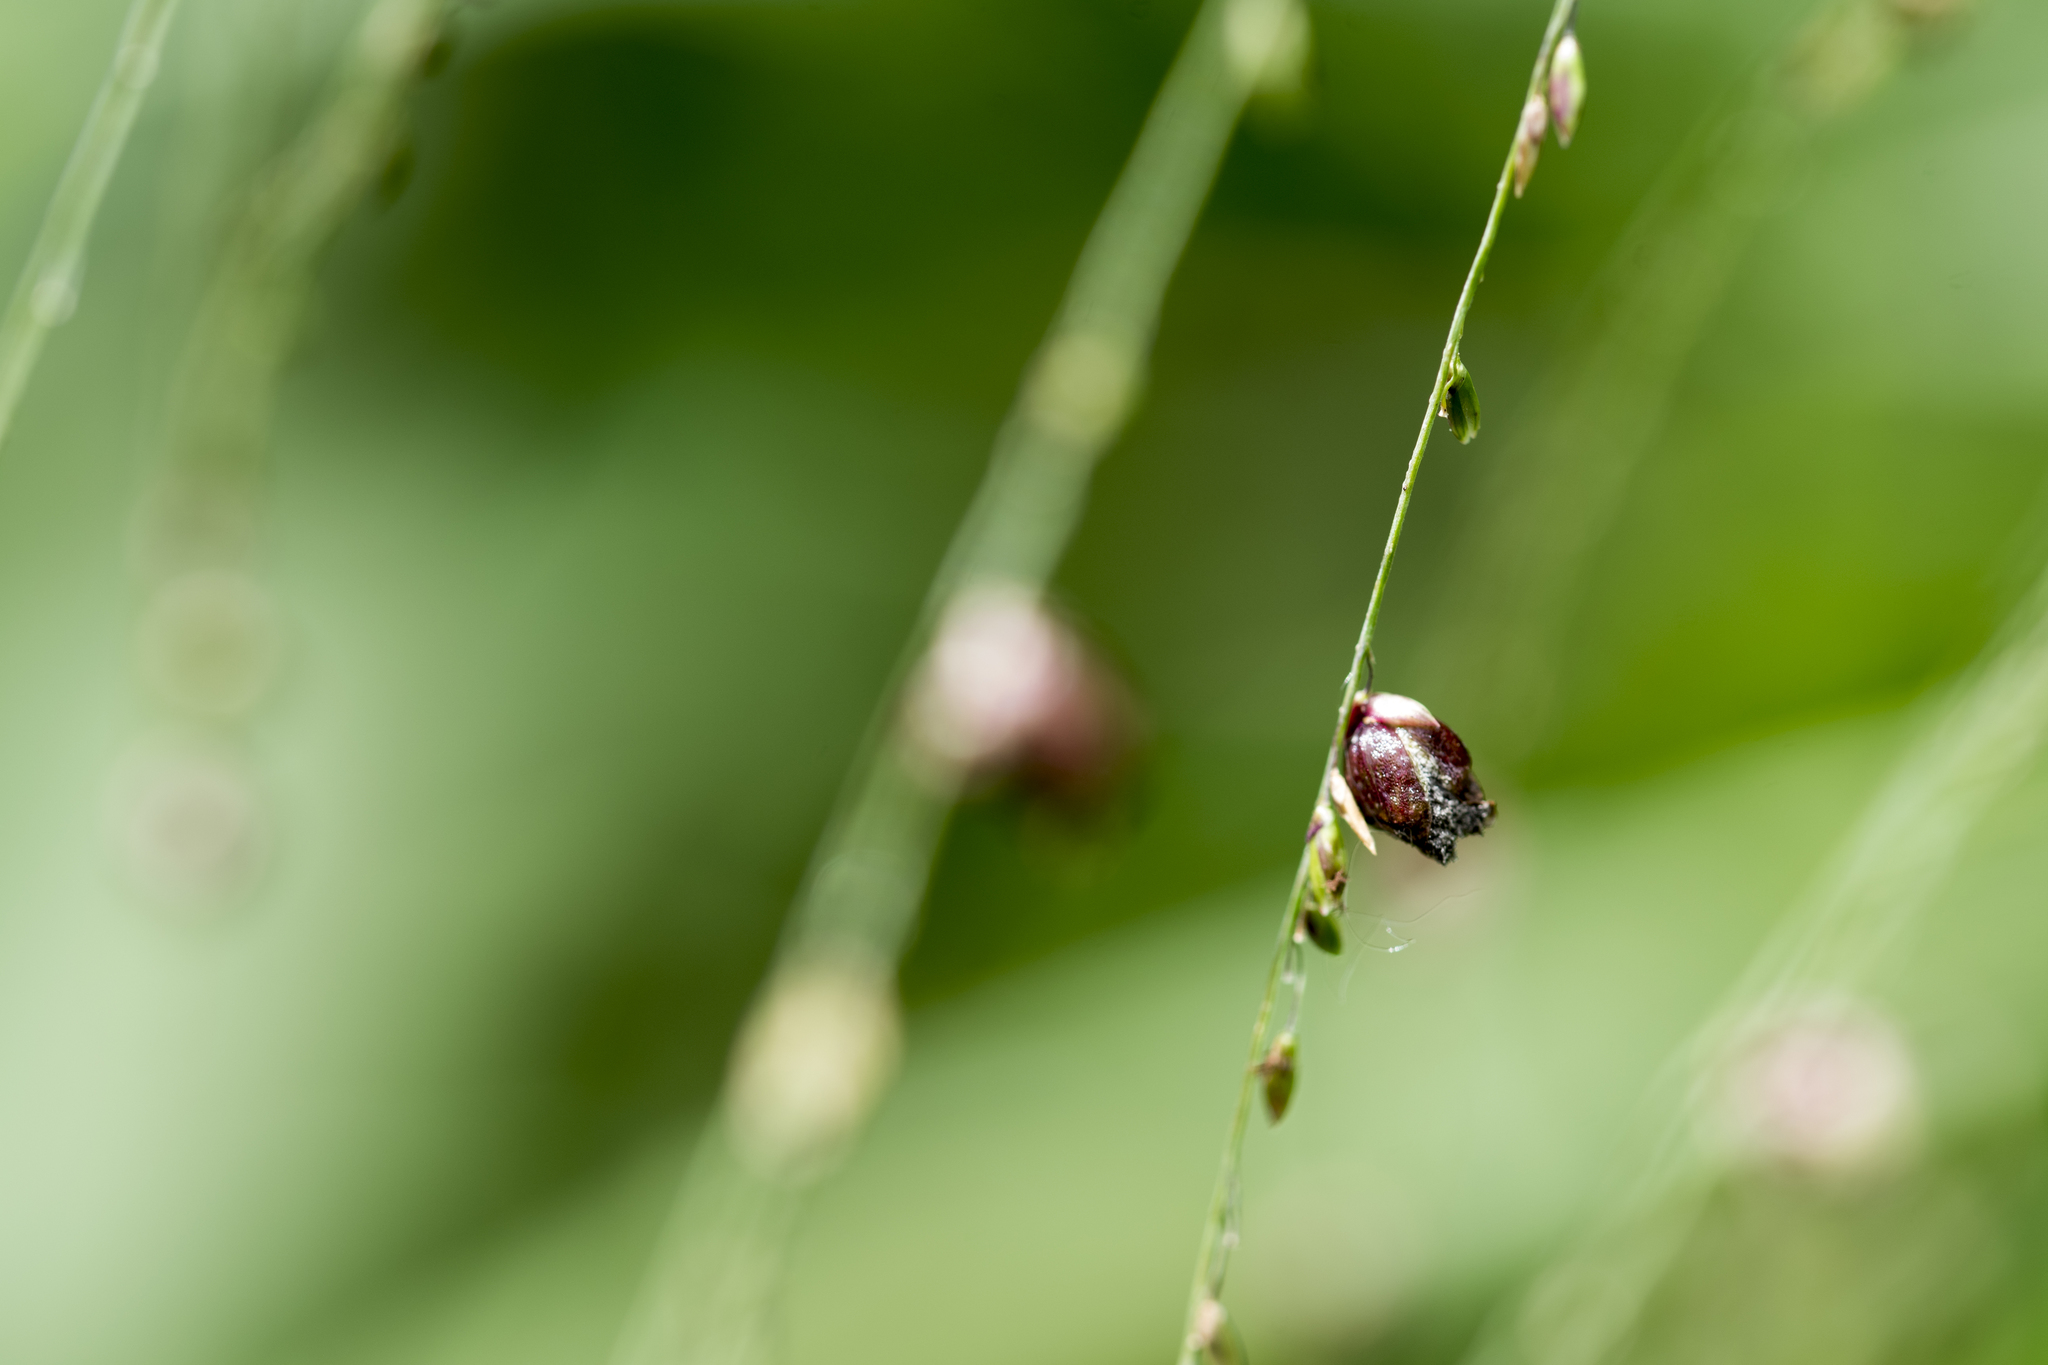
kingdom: Plantae
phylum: Tracheophyta
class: Liliopsida
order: Poales
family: Poaceae
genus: Megathyrsus
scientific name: Megathyrsus maximus
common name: Guineagrass
